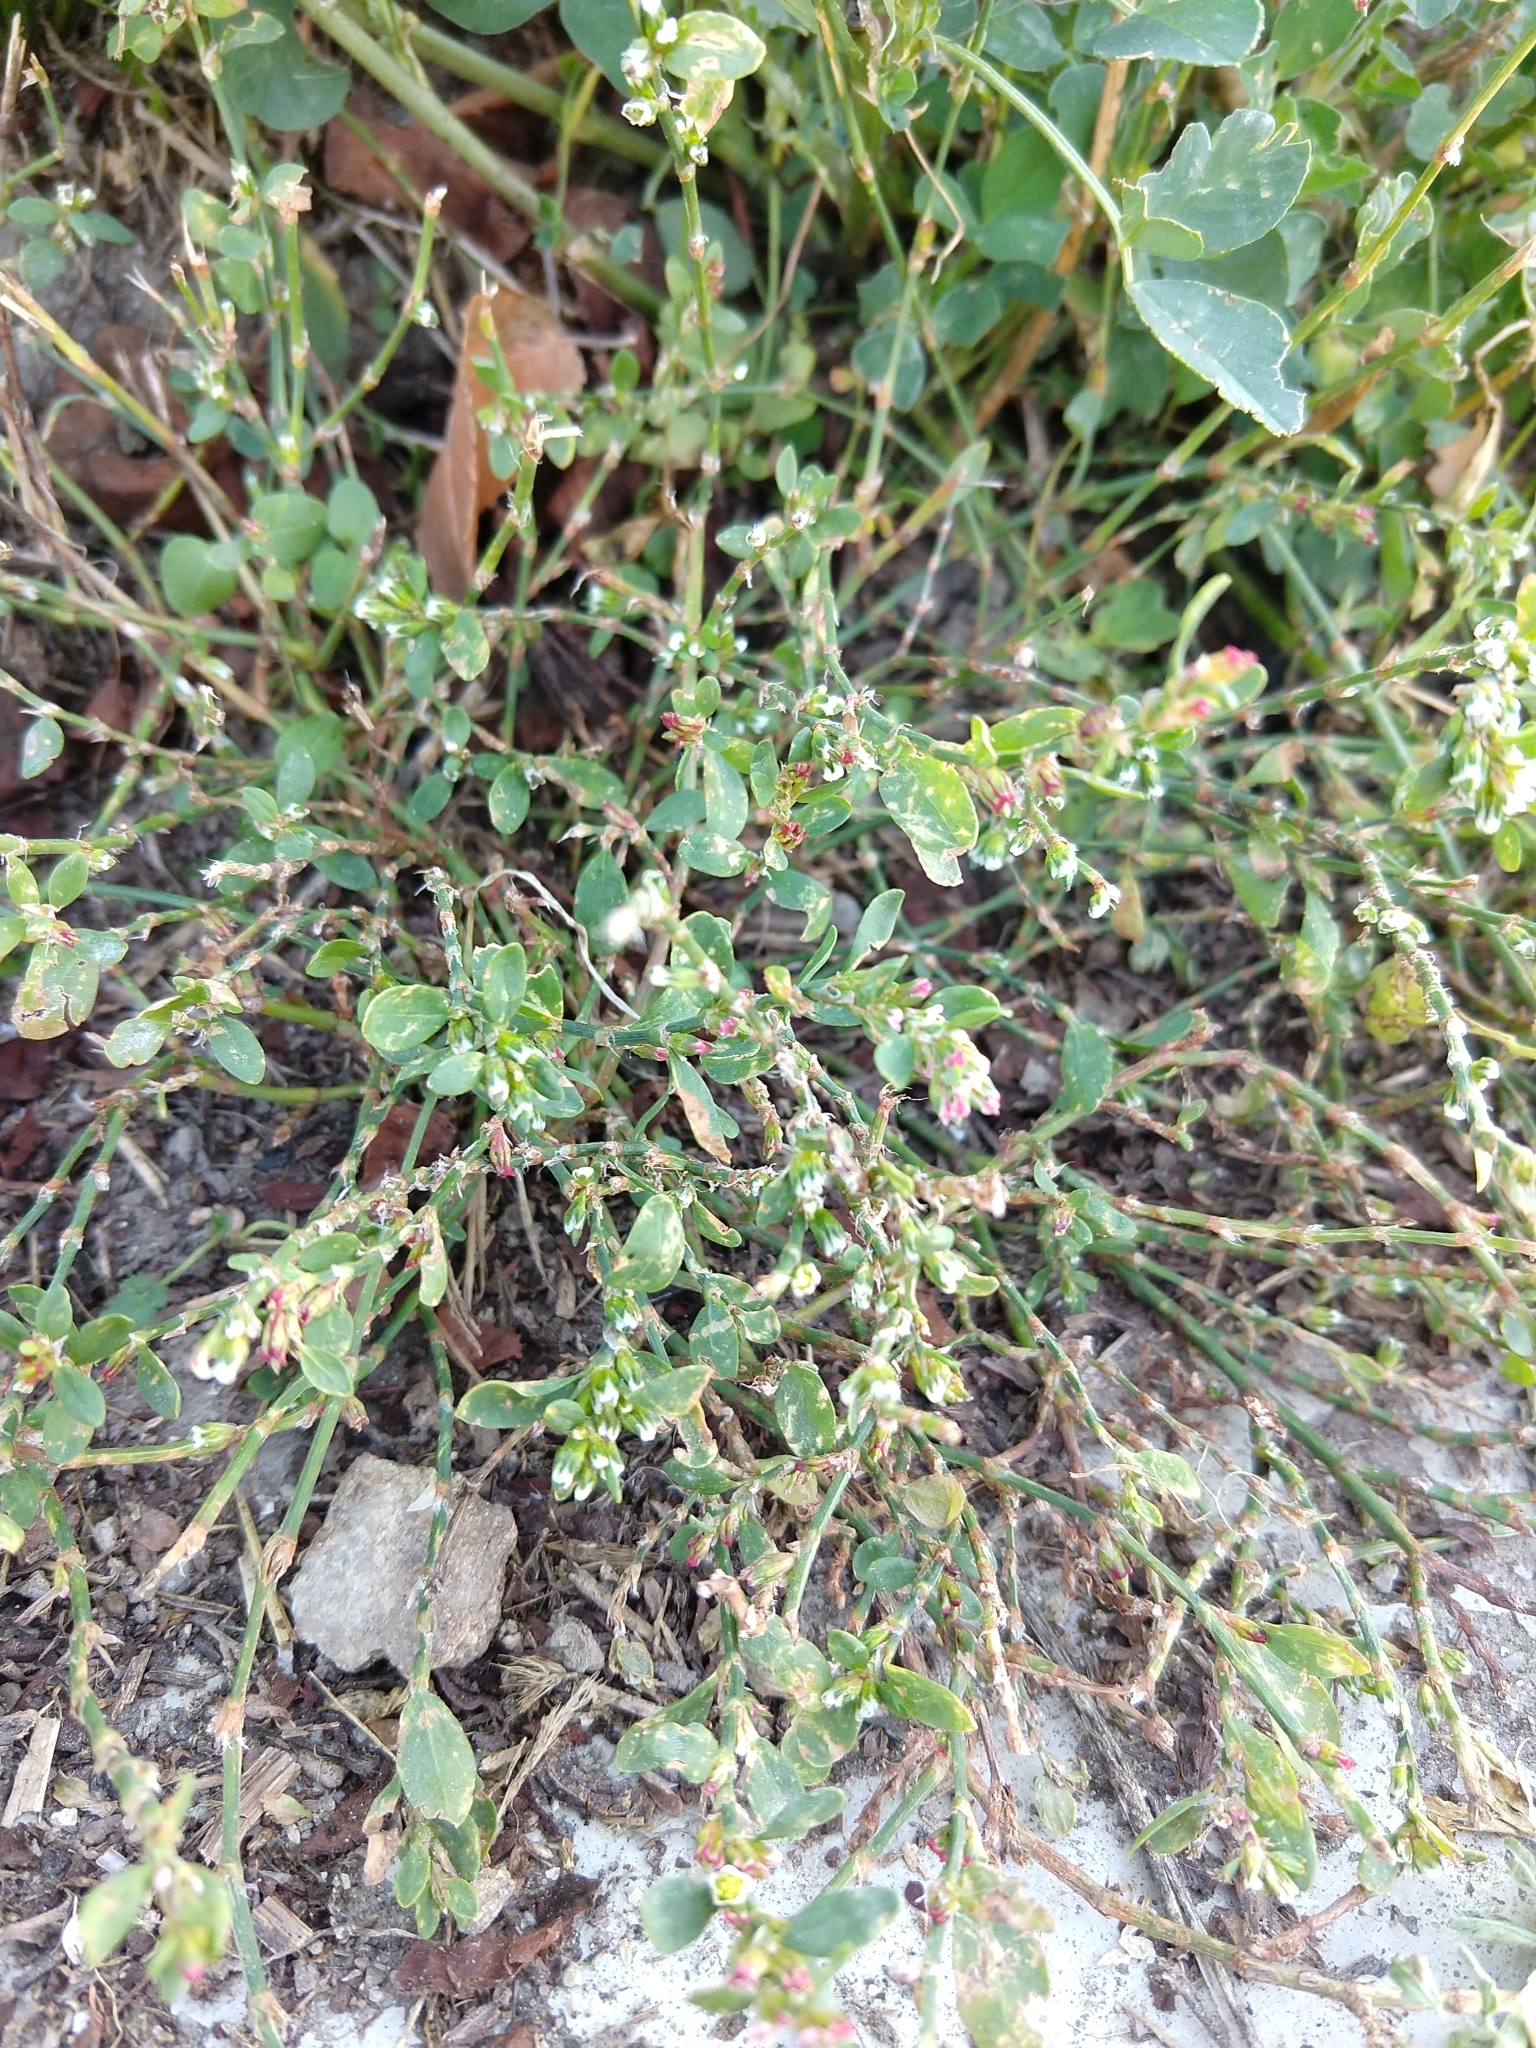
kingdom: Plantae
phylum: Tracheophyta
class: Magnoliopsida
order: Caryophyllales
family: Polygonaceae
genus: Polygonum
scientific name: Polygonum aviculare
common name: Prostrate knotweed
